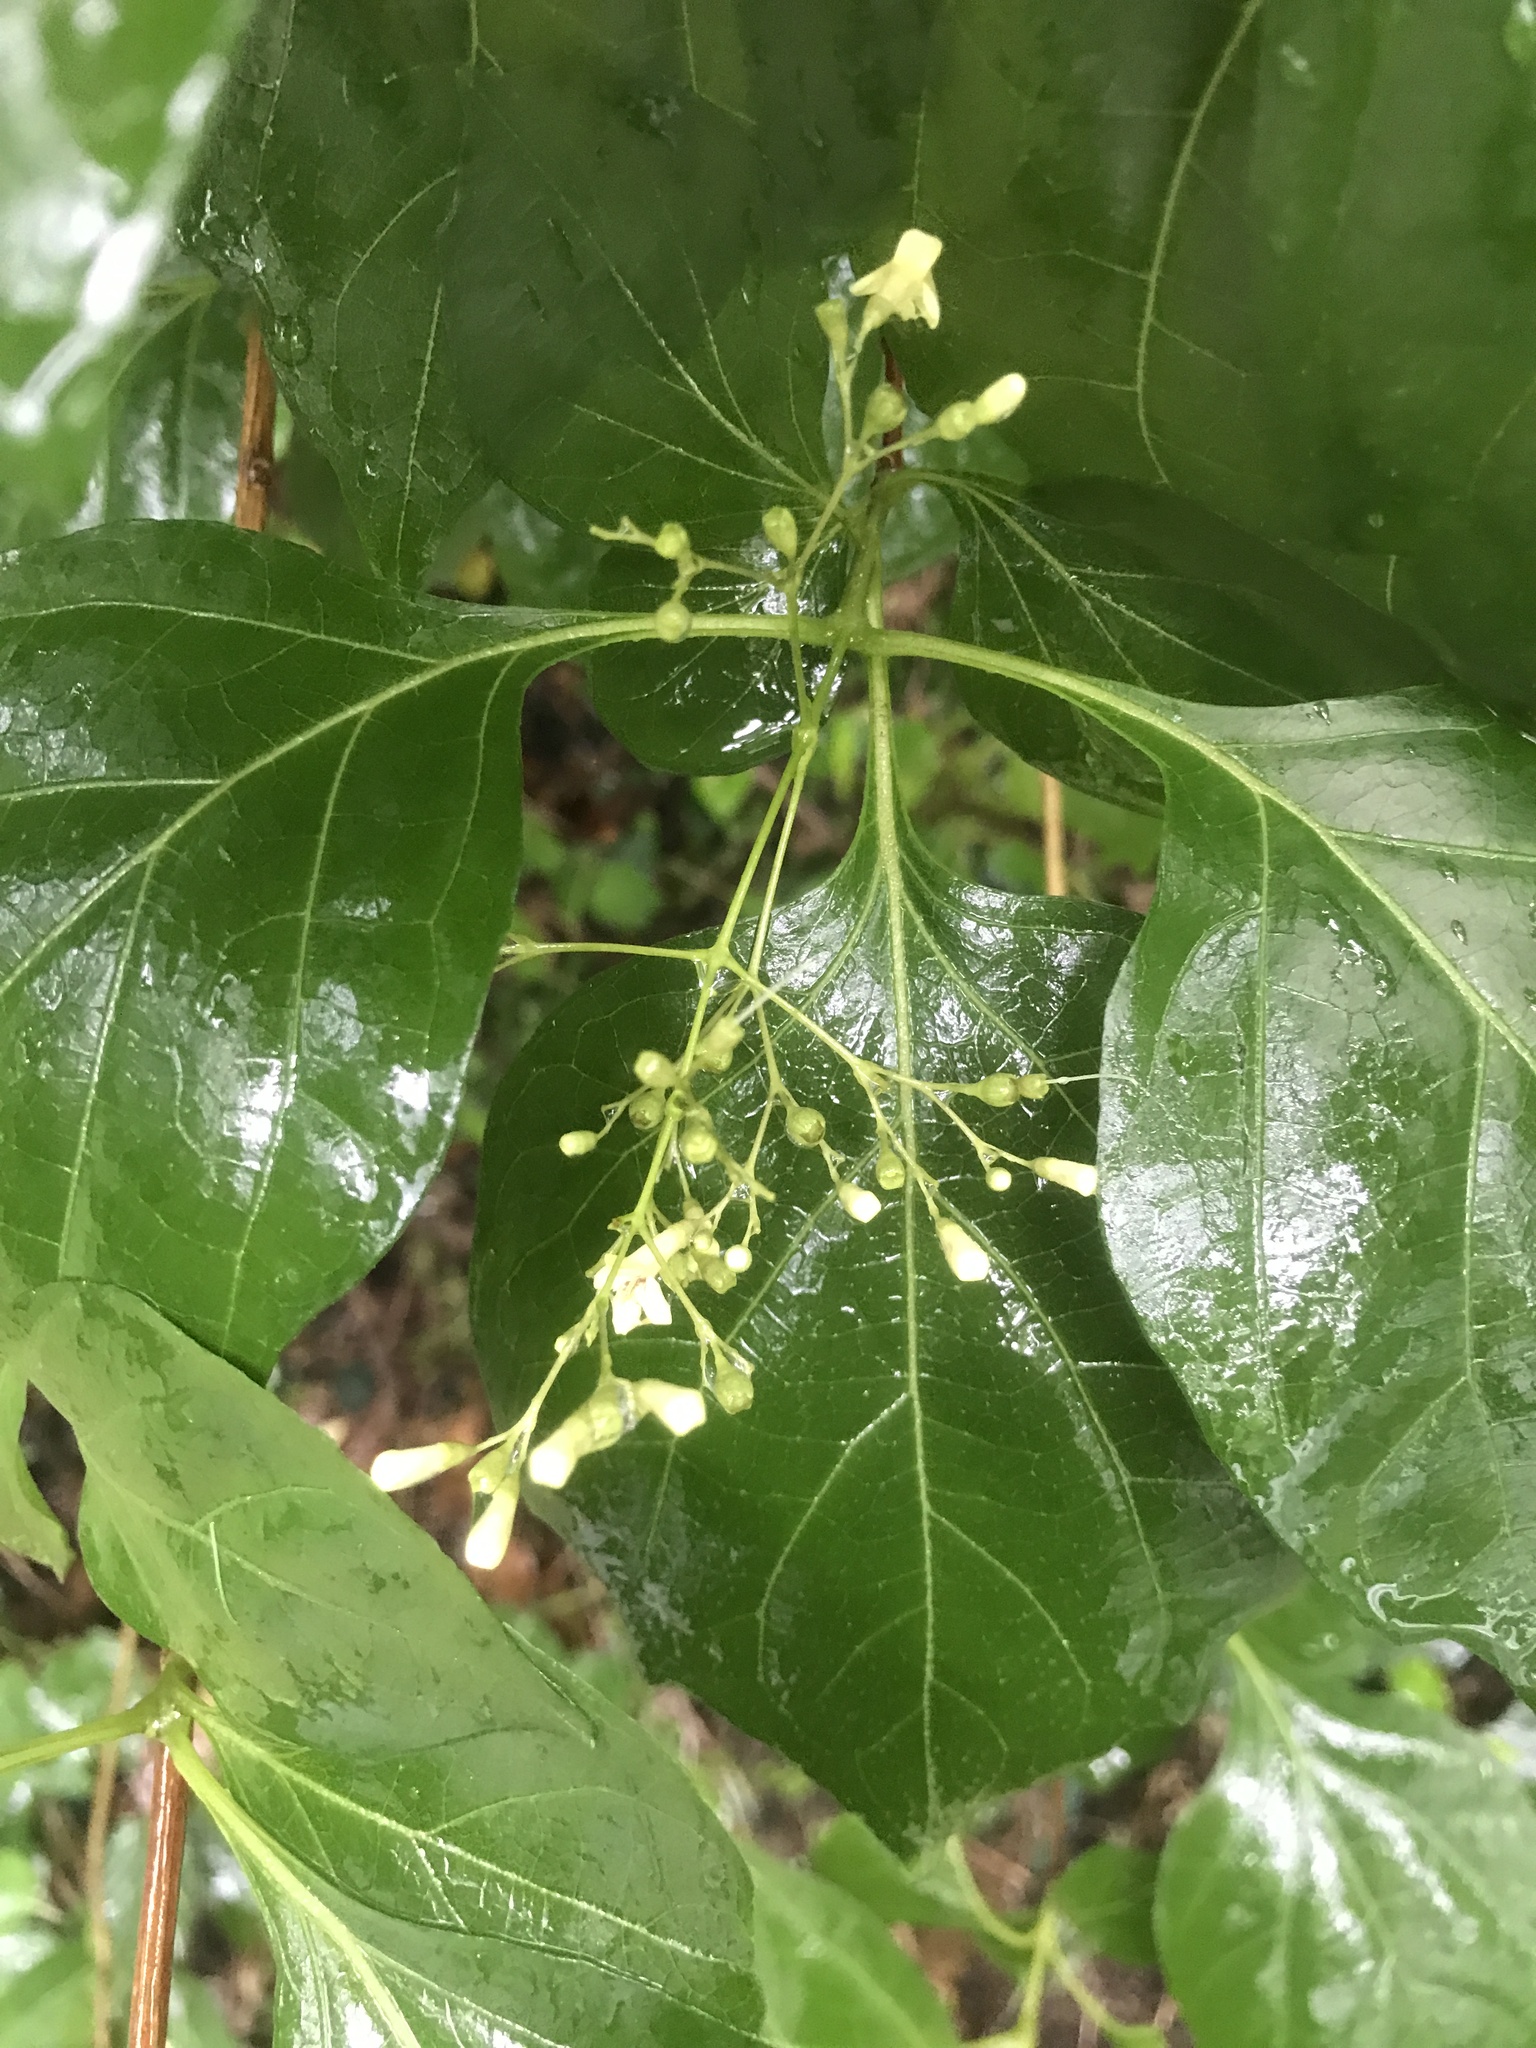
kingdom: Plantae
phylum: Tracheophyta
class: Magnoliopsida
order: Lamiales
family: Lamiaceae
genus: Premna
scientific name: Premna microphylla
